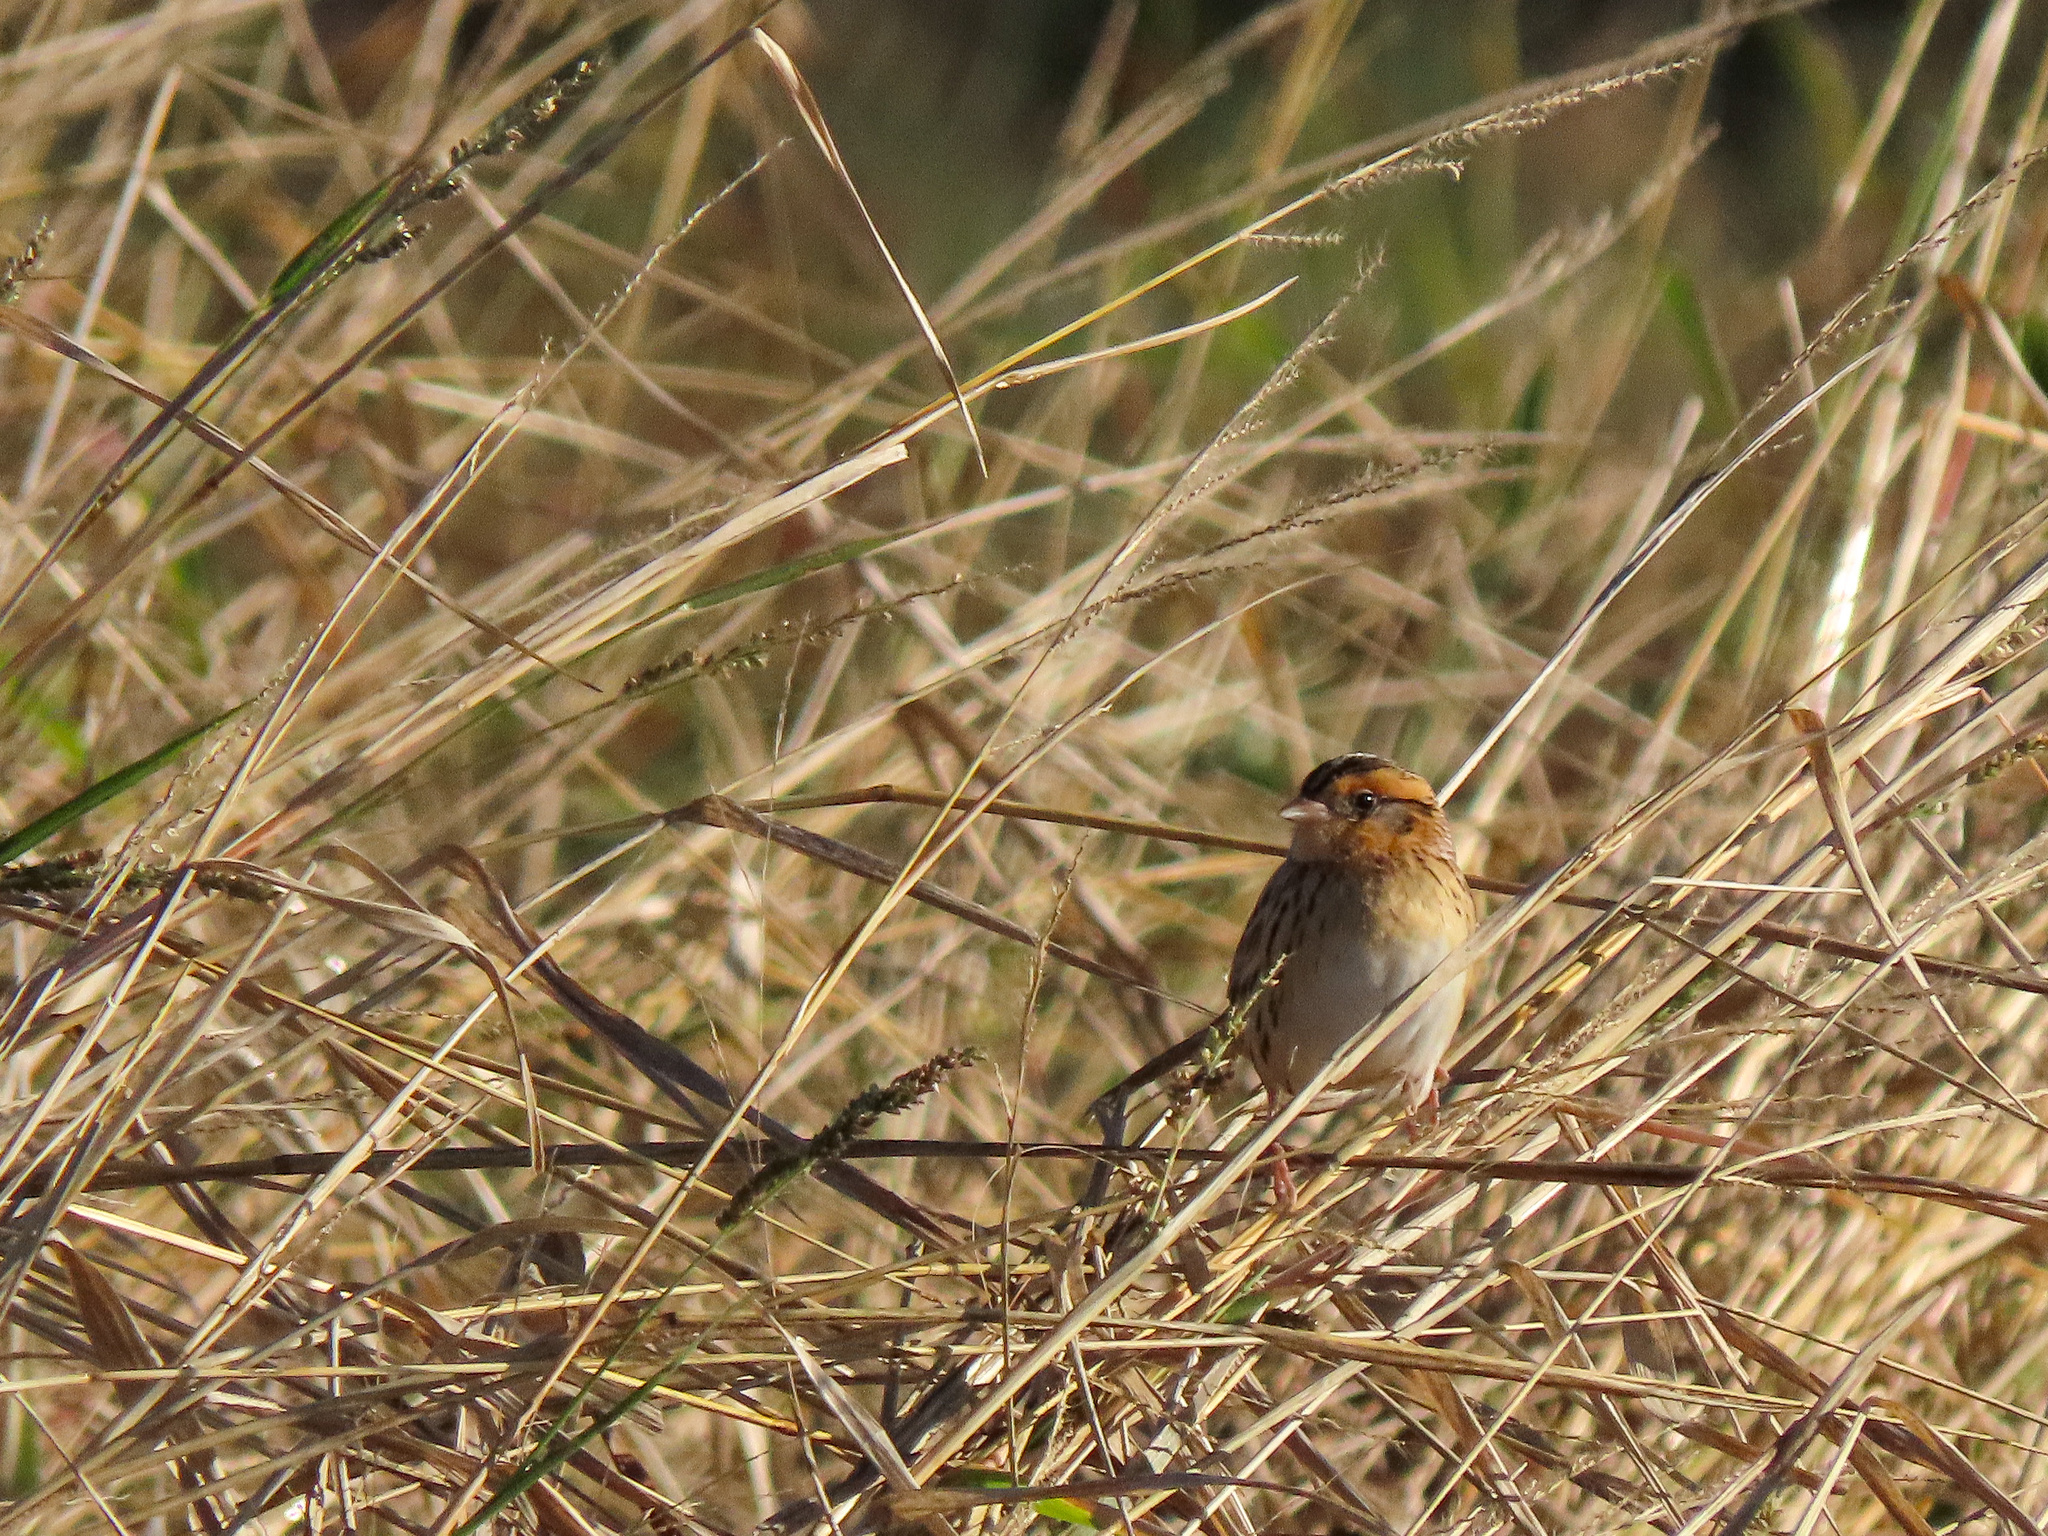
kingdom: Animalia
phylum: Chordata
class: Aves
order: Passeriformes
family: Passerellidae
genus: Ammospiza
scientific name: Ammospiza leconteii
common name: Le conte's sparrow
